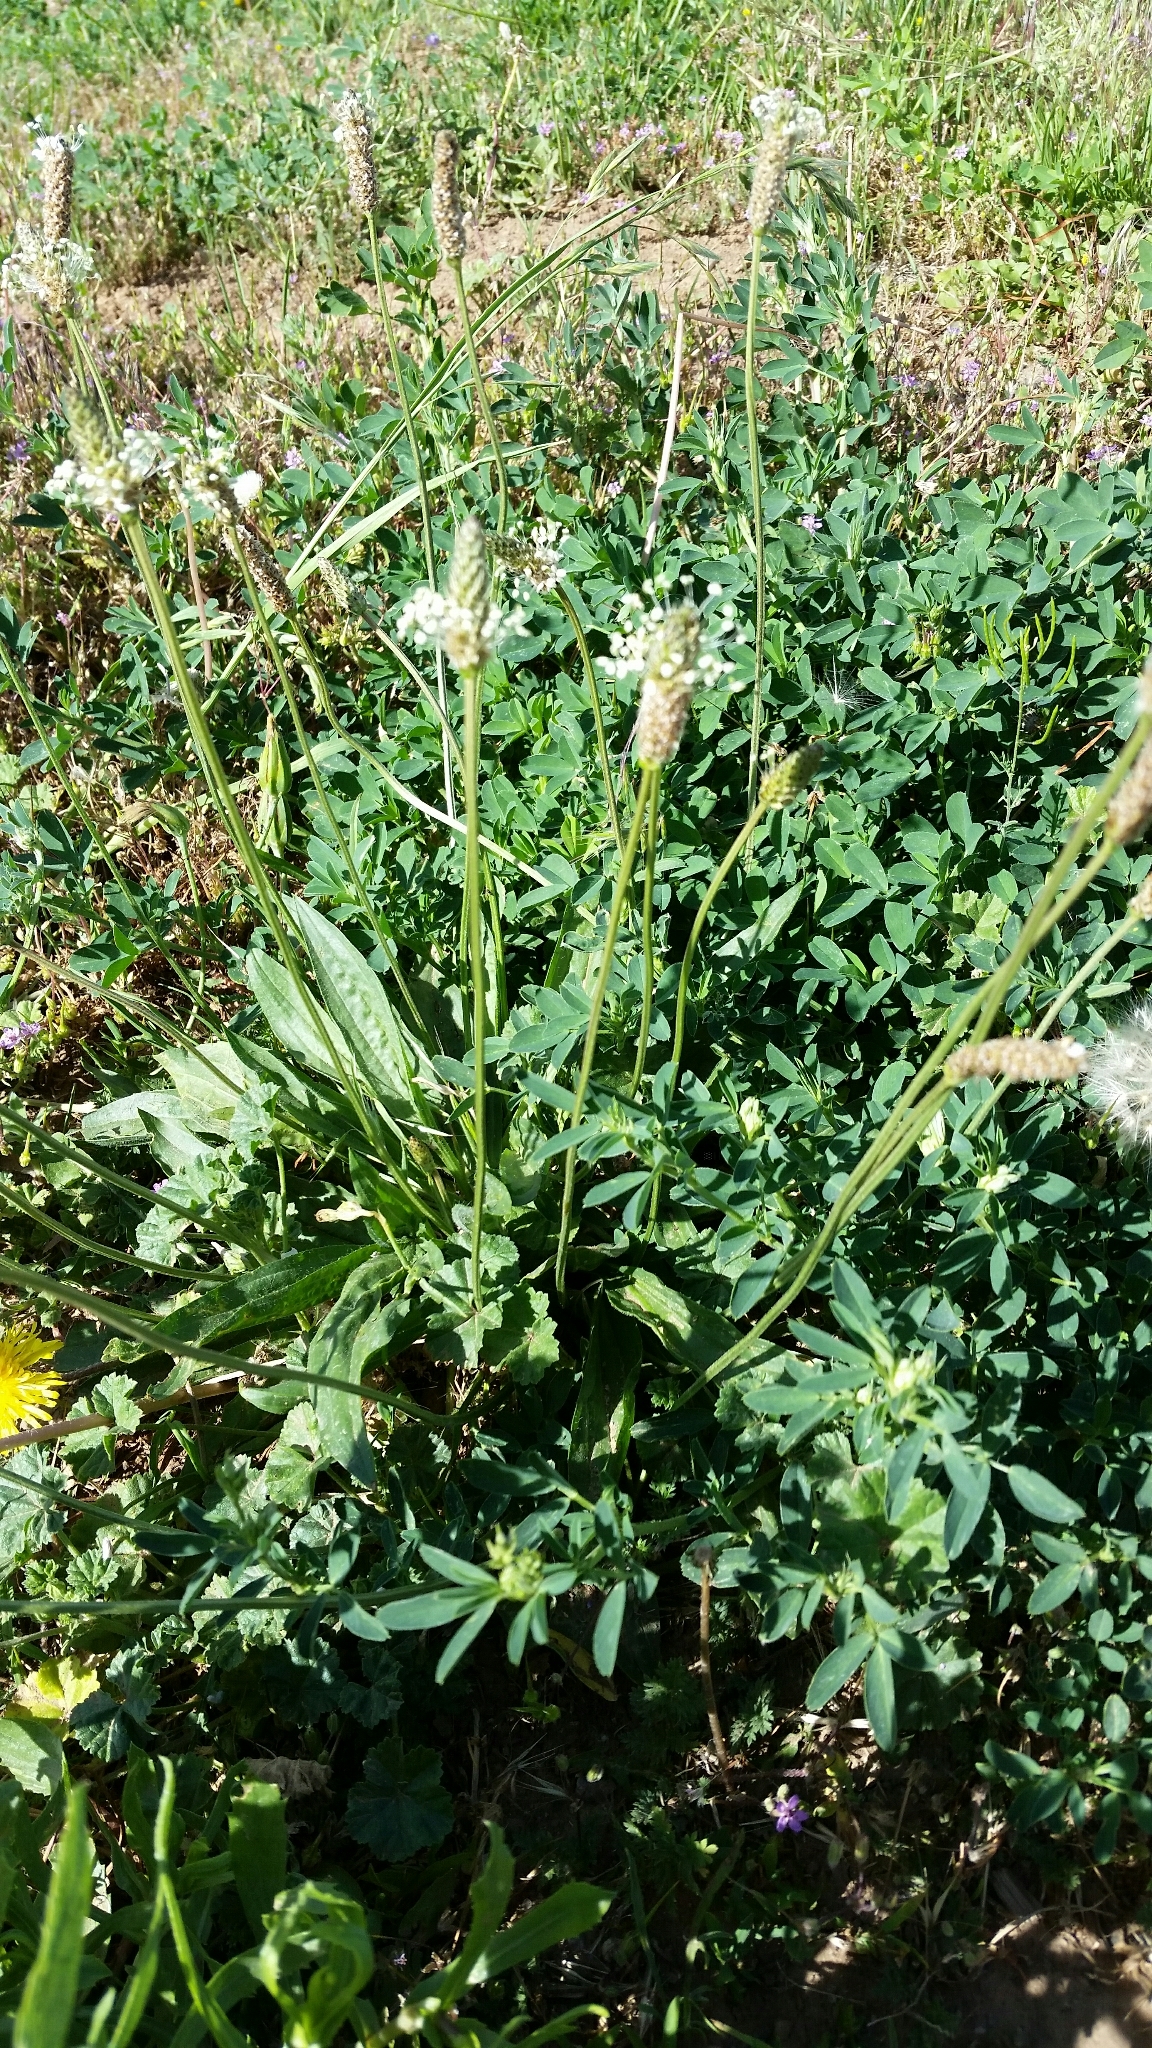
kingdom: Plantae
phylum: Tracheophyta
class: Magnoliopsida
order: Lamiales
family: Plantaginaceae
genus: Plantago
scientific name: Plantago lanceolata
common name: Ribwort plantain
